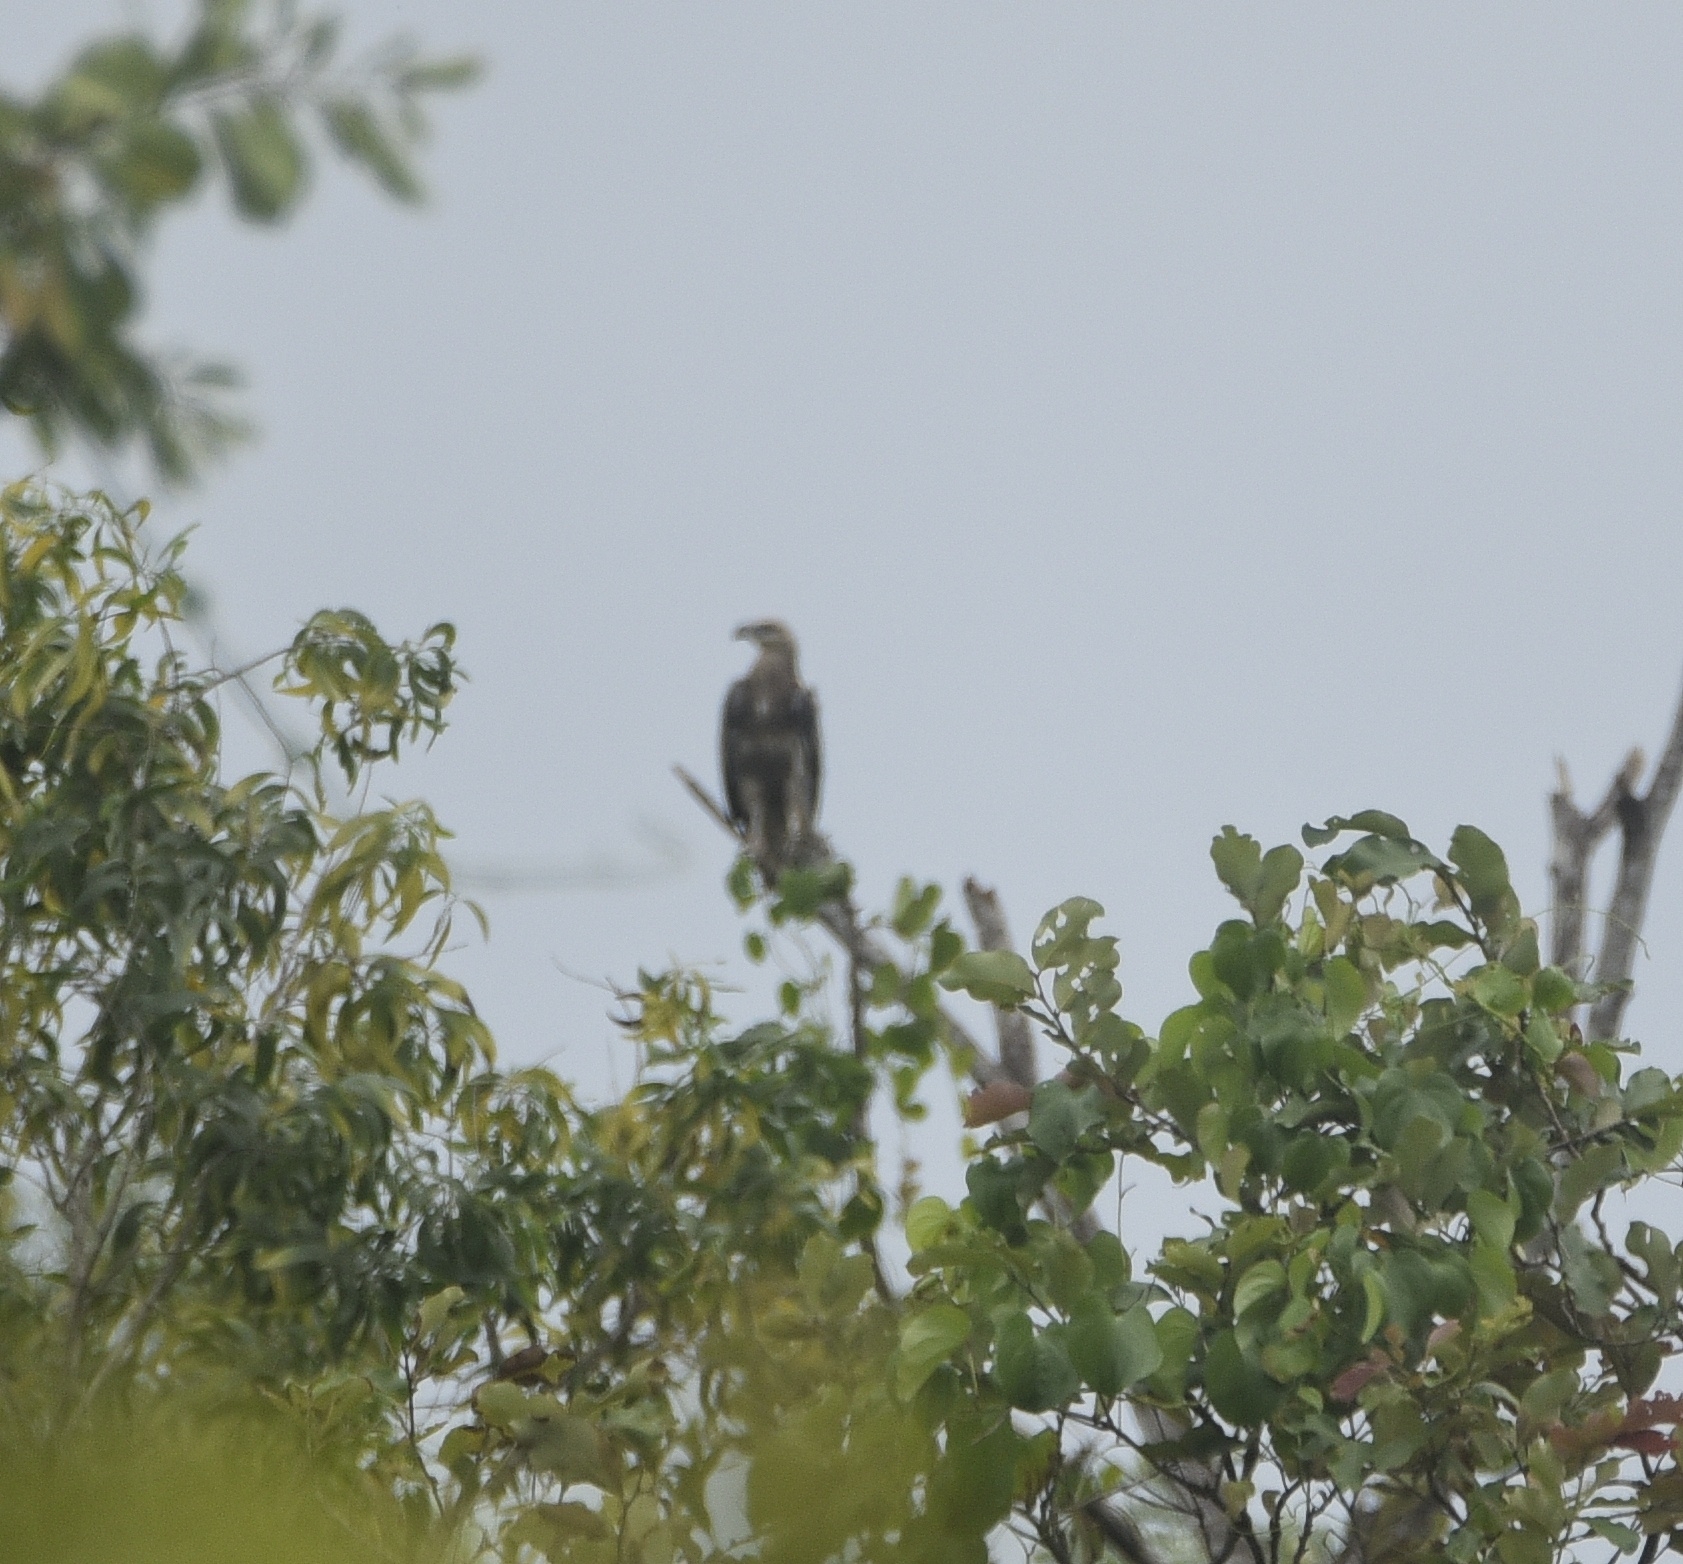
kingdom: Animalia
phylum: Chordata
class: Aves
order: Accipitriformes
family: Accipitridae
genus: Haliaeetus
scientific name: Haliaeetus leucogaster
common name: White-bellied sea eagle
